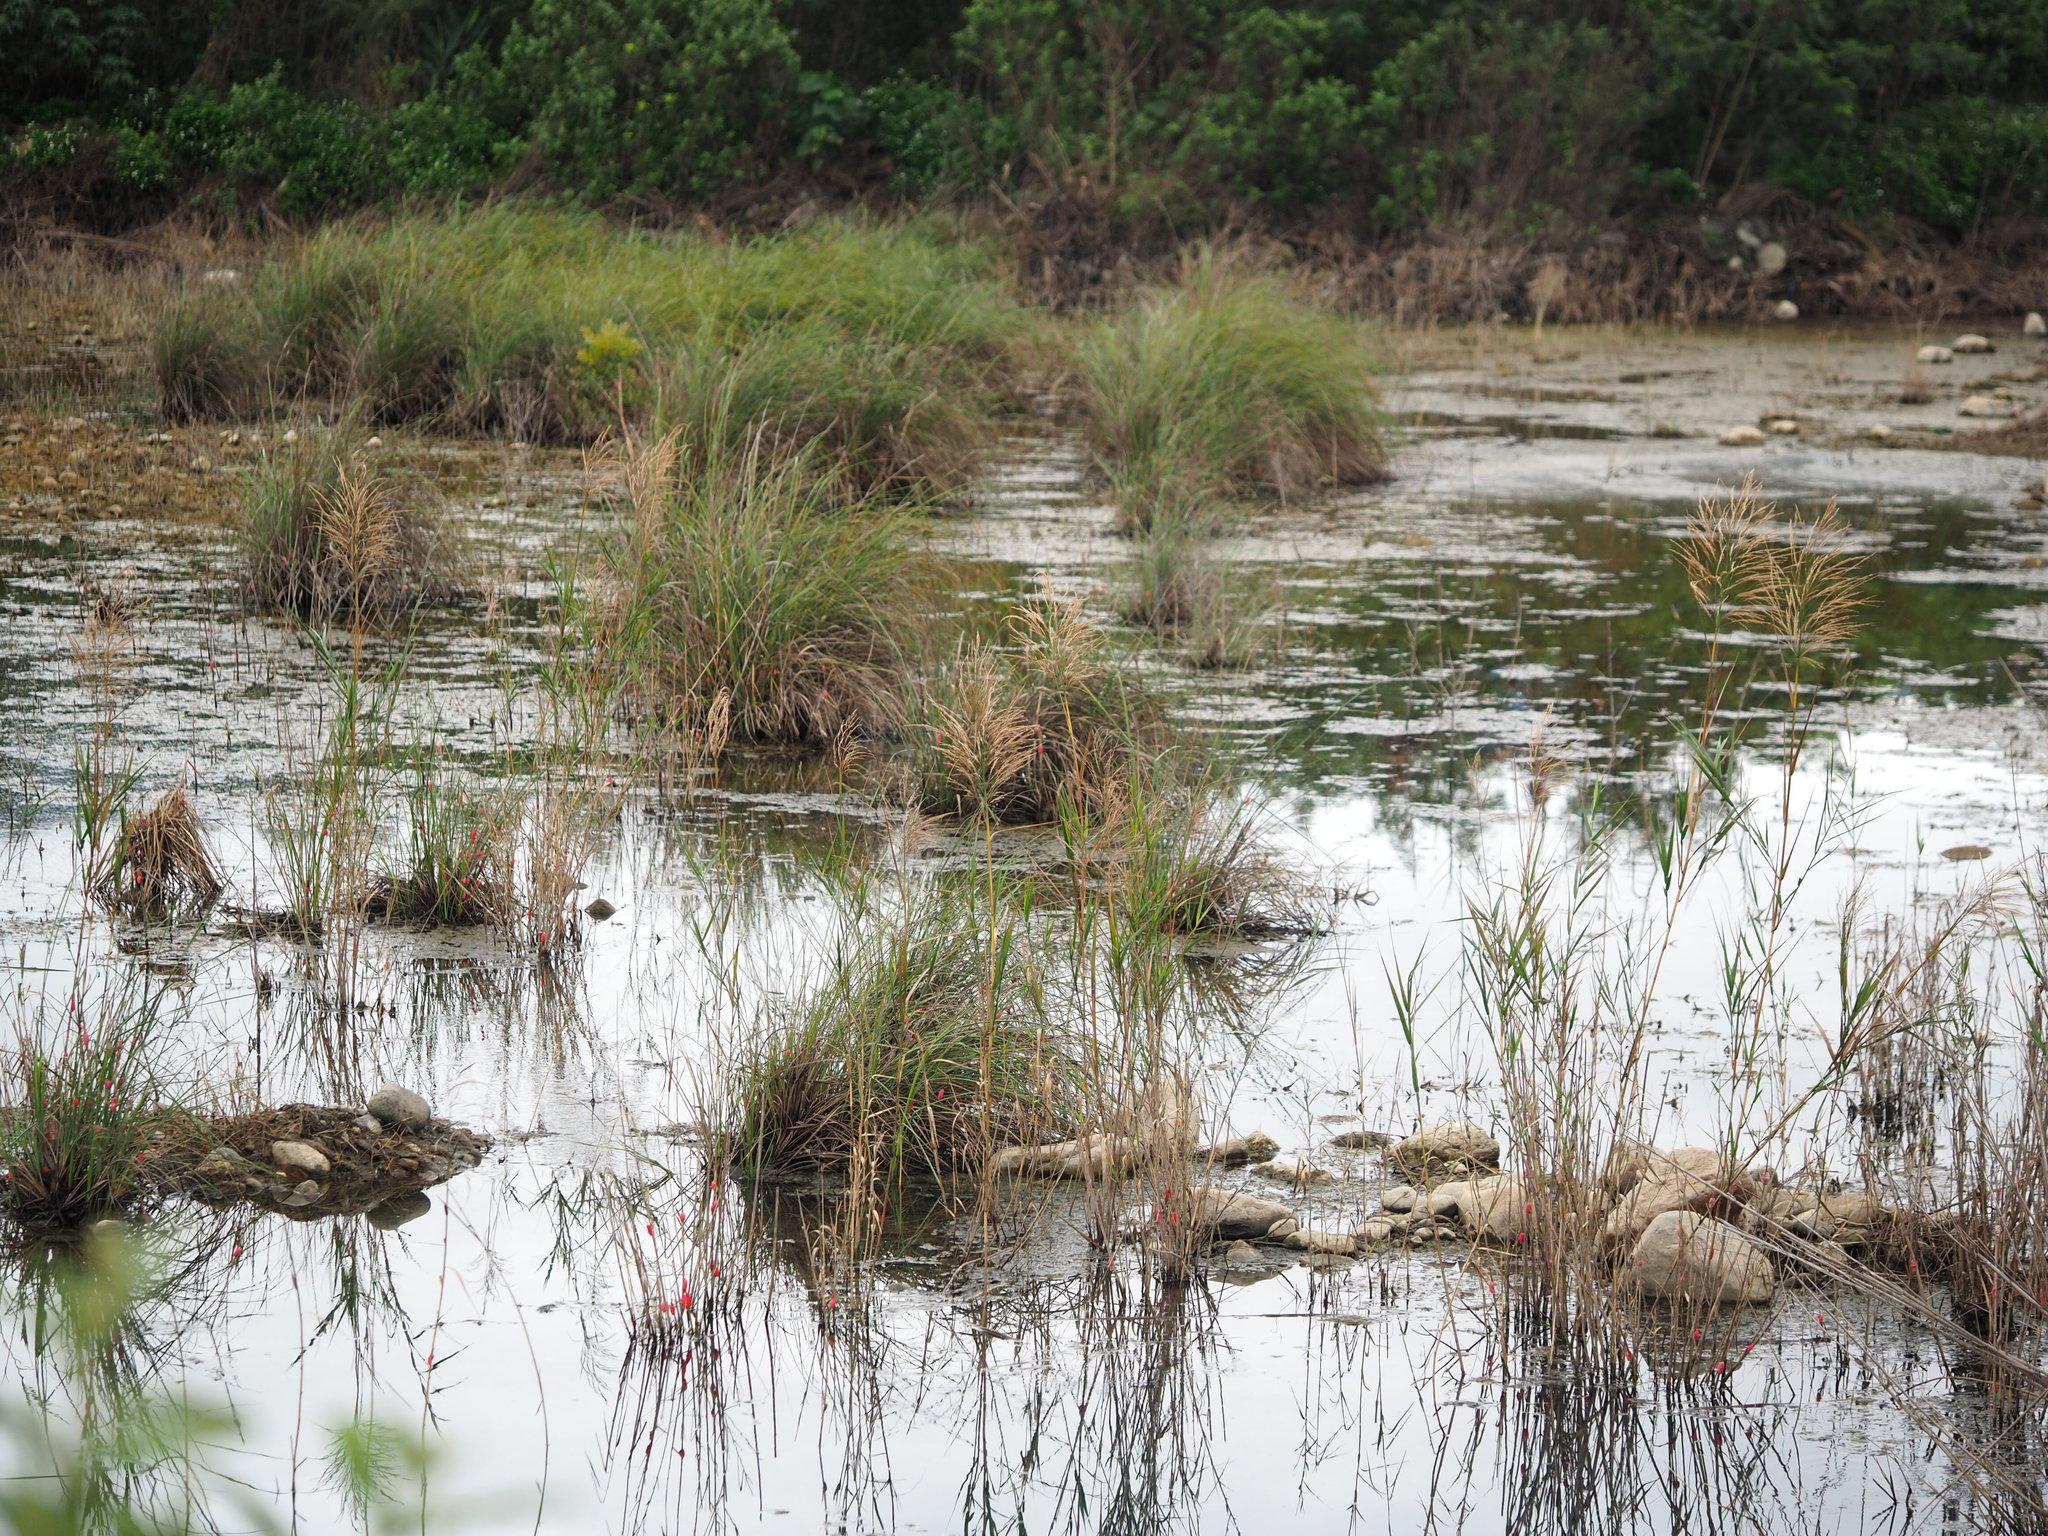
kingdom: Plantae
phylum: Tracheophyta
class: Liliopsida
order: Poales
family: Poaceae
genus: Phragmites
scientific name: Phragmites karka
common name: Tropical reed
